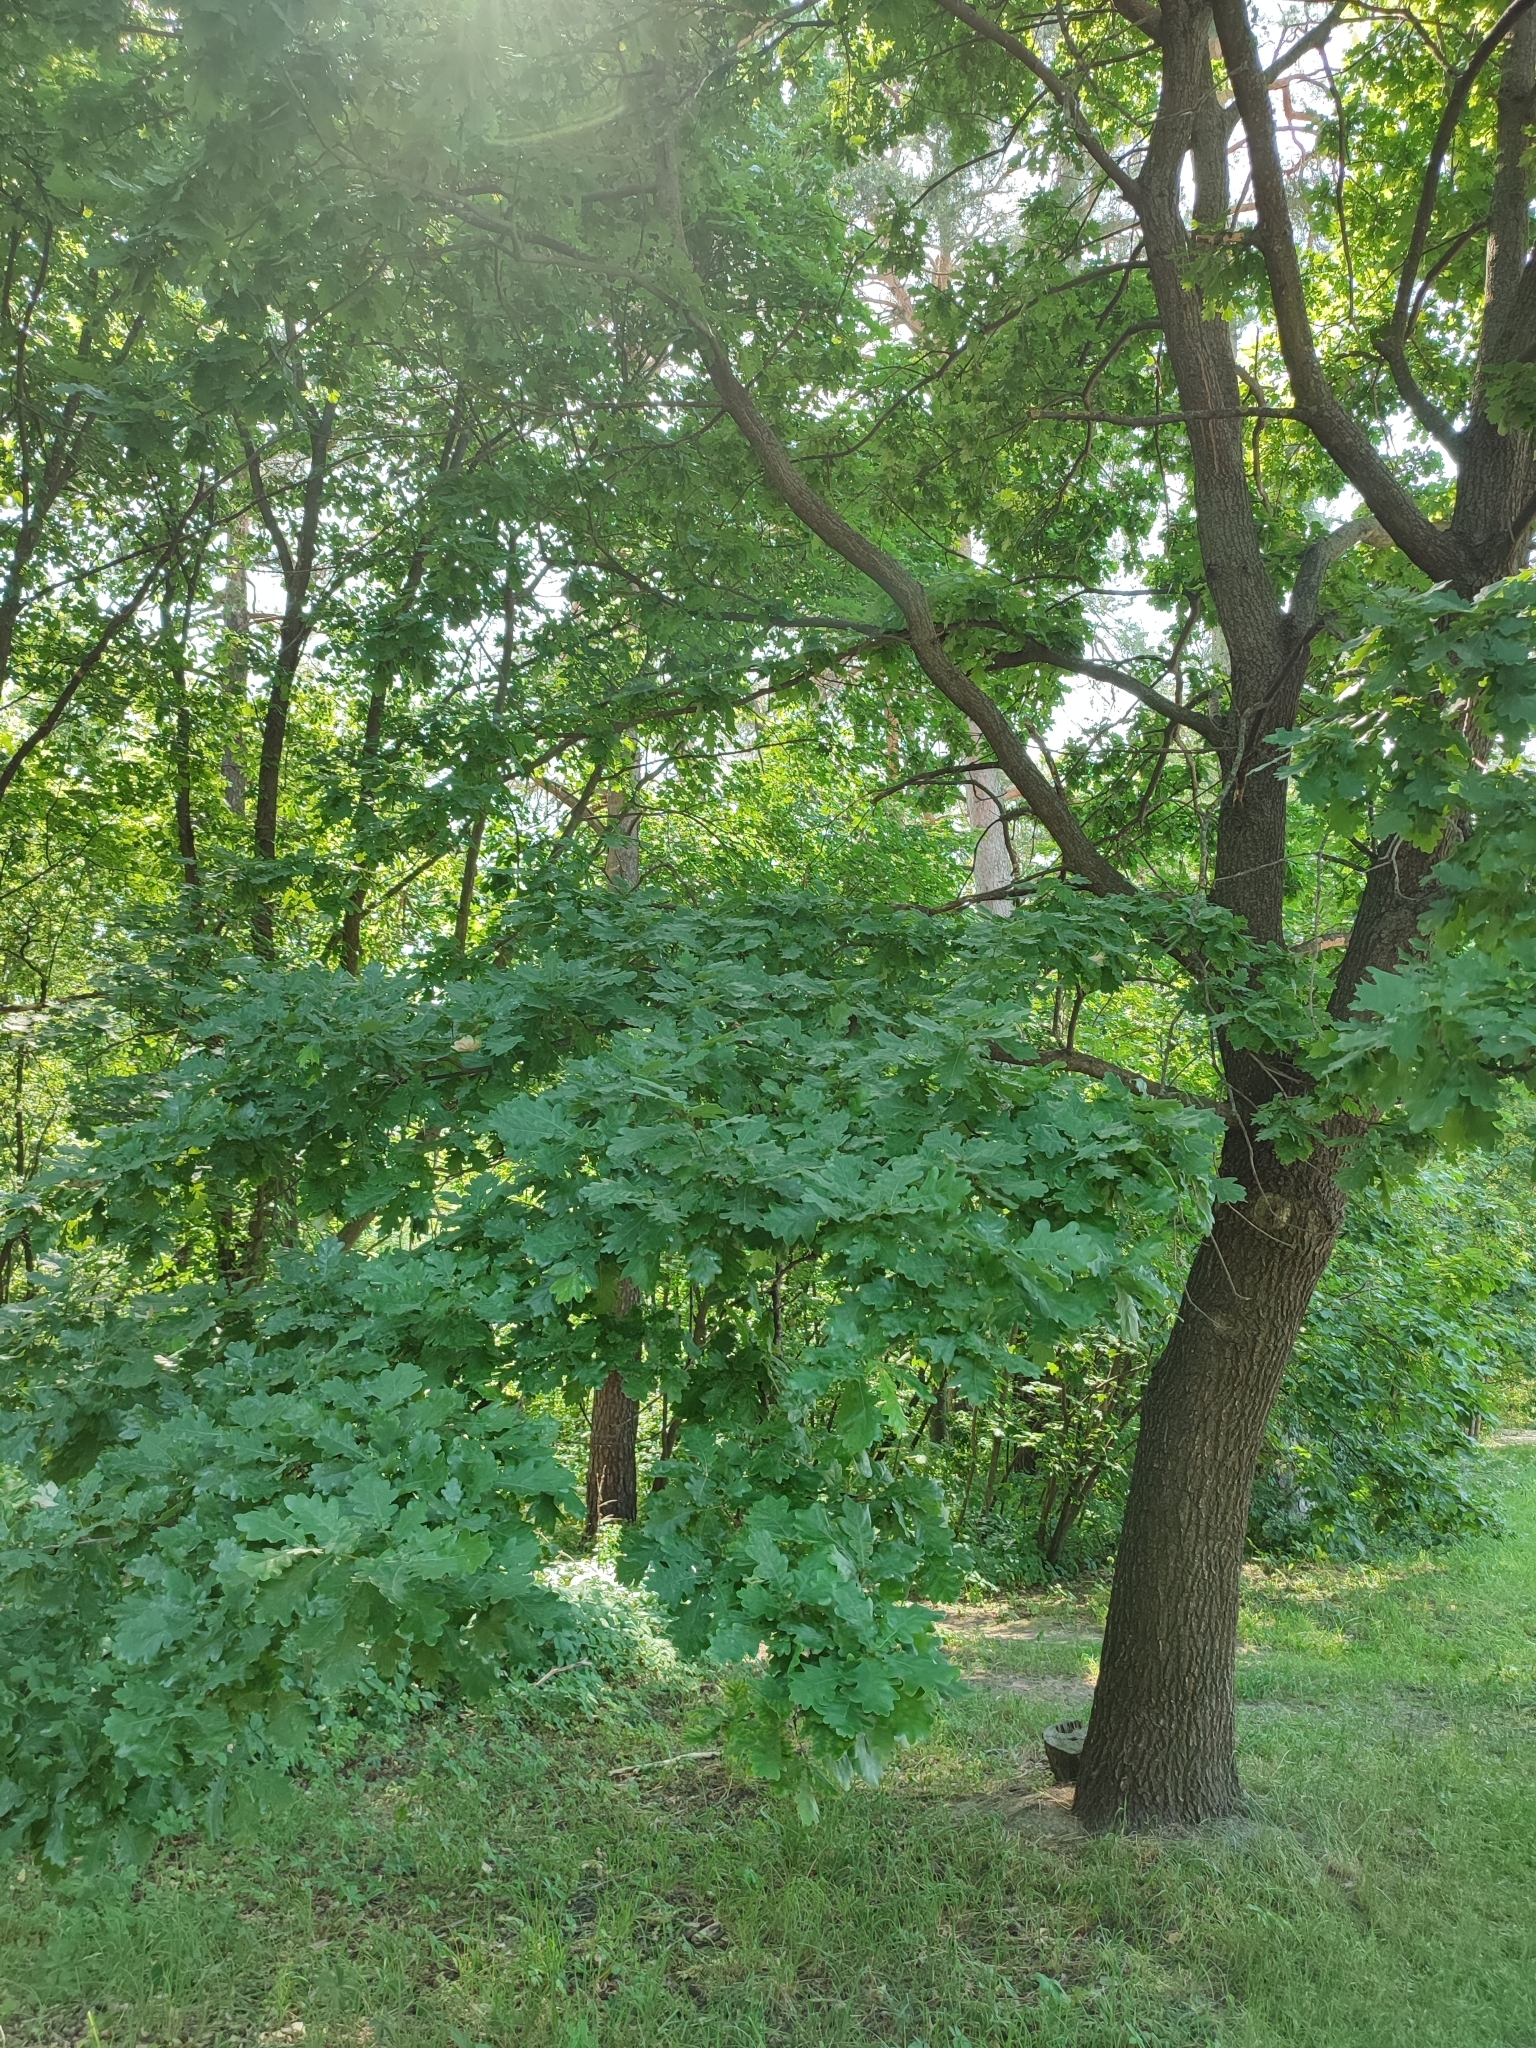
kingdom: Plantae
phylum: Tracheophyta
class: Magnoliopsida
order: Fagales
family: Fagaceae
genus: Quercus
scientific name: Quercus robur
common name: Pedunculate oak
